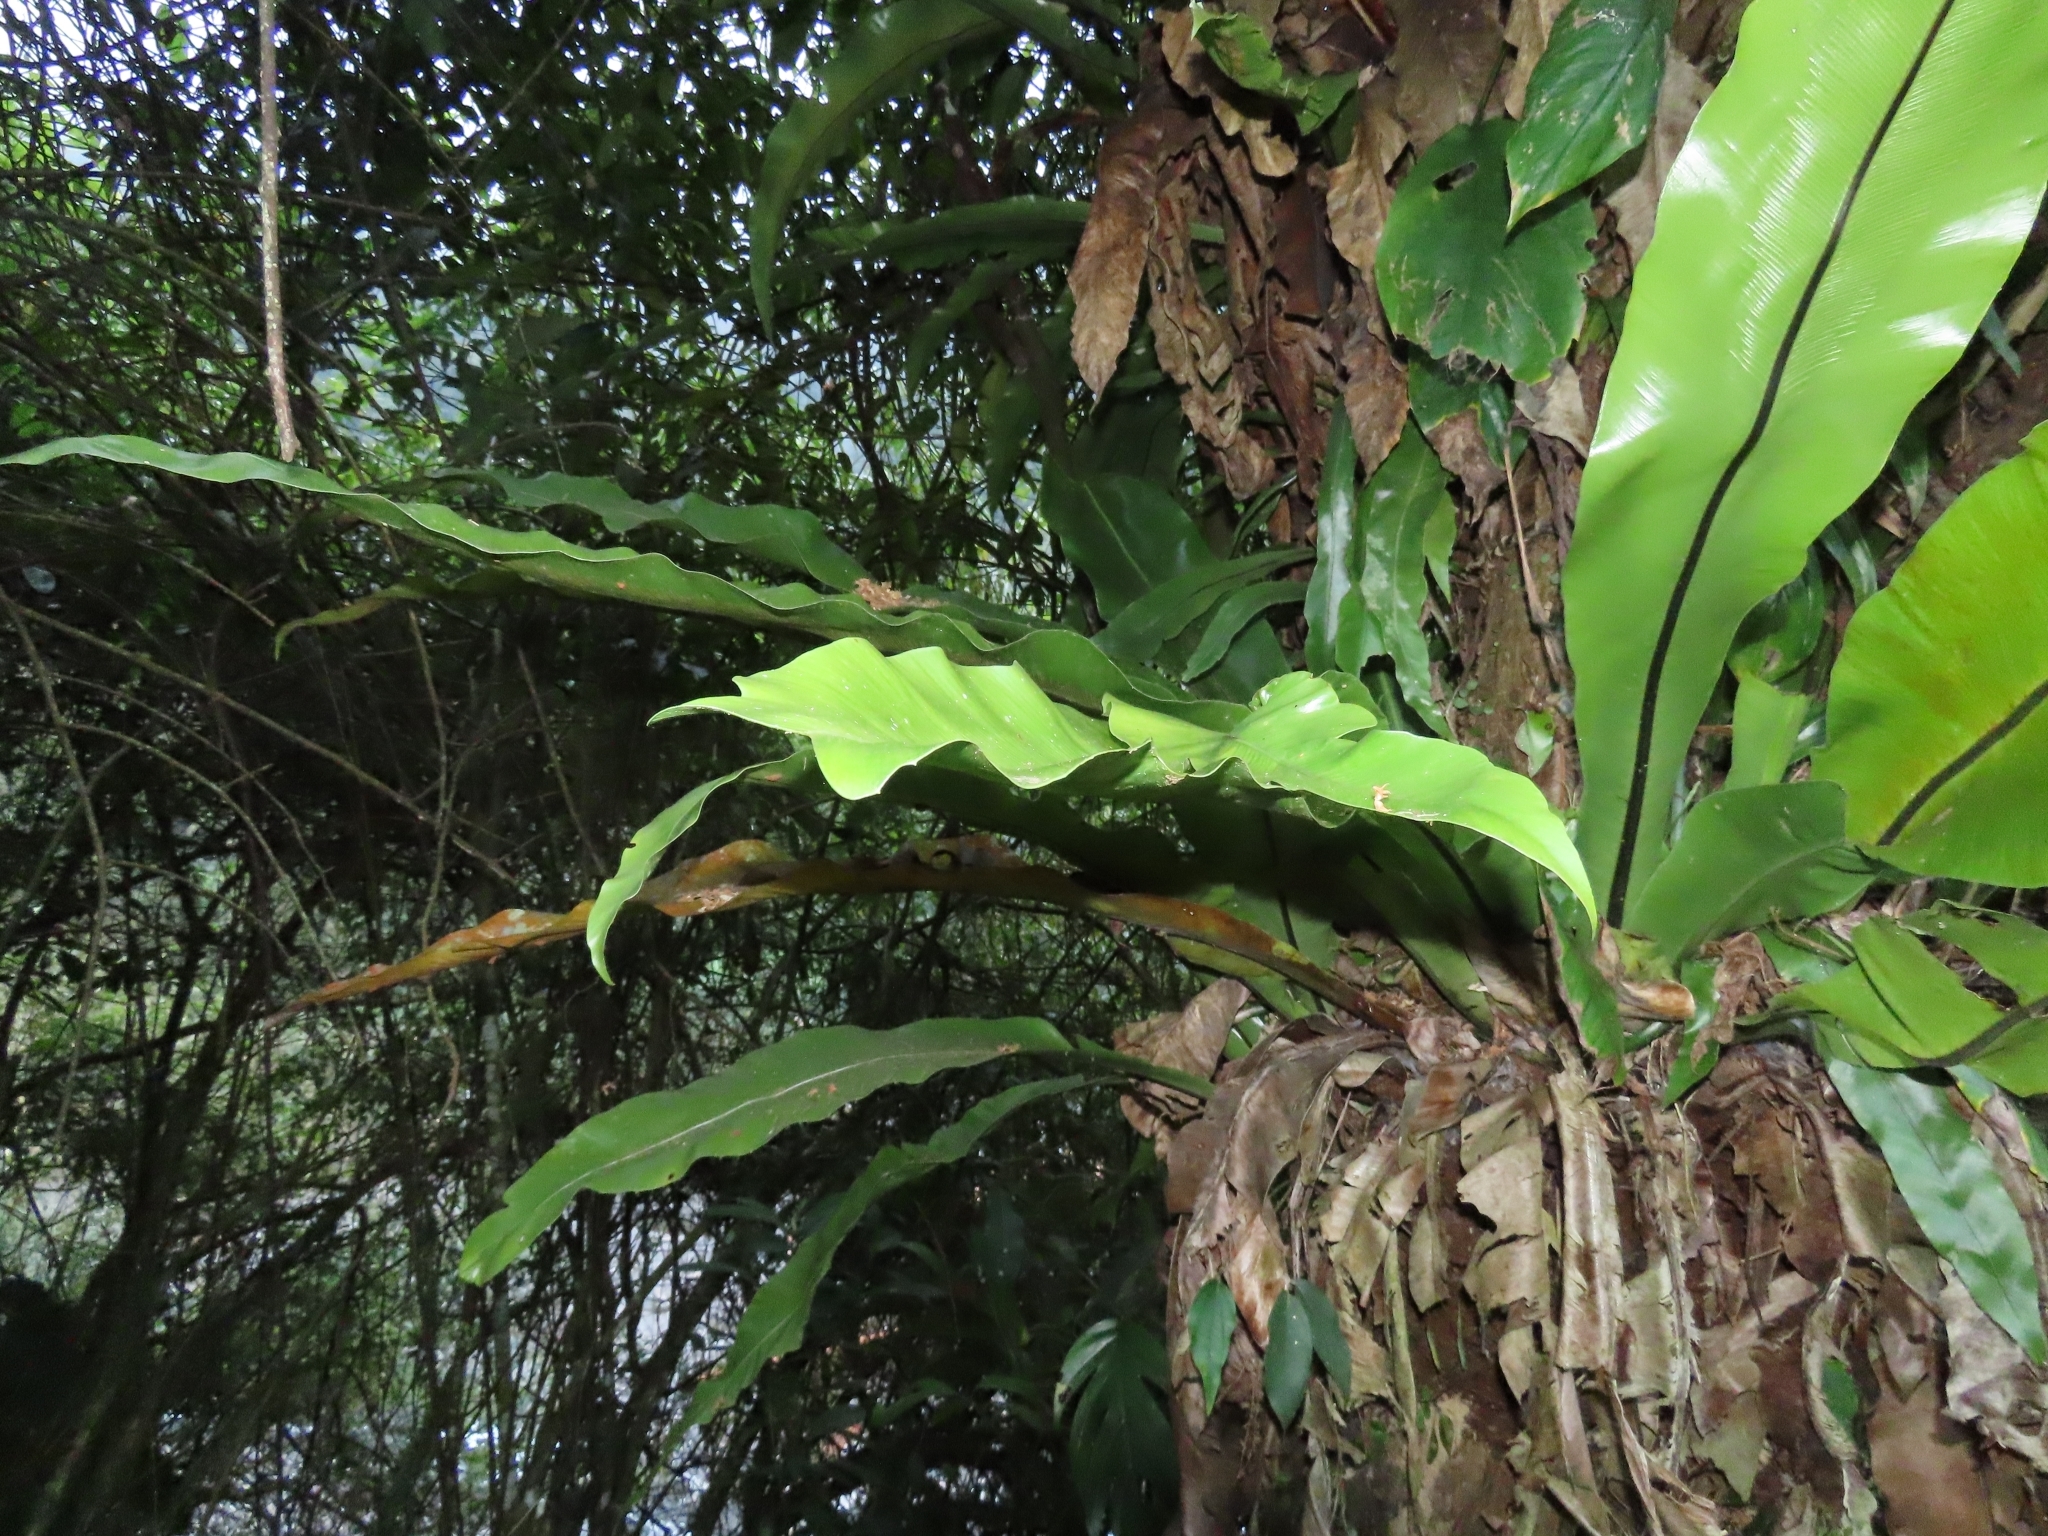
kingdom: Plantae
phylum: Tracheophyta
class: Polypodiopsida
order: Polypodiales
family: Aspleniaceae
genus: Asplenium
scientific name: Asplenium nidus
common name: Bird's-nest fern
